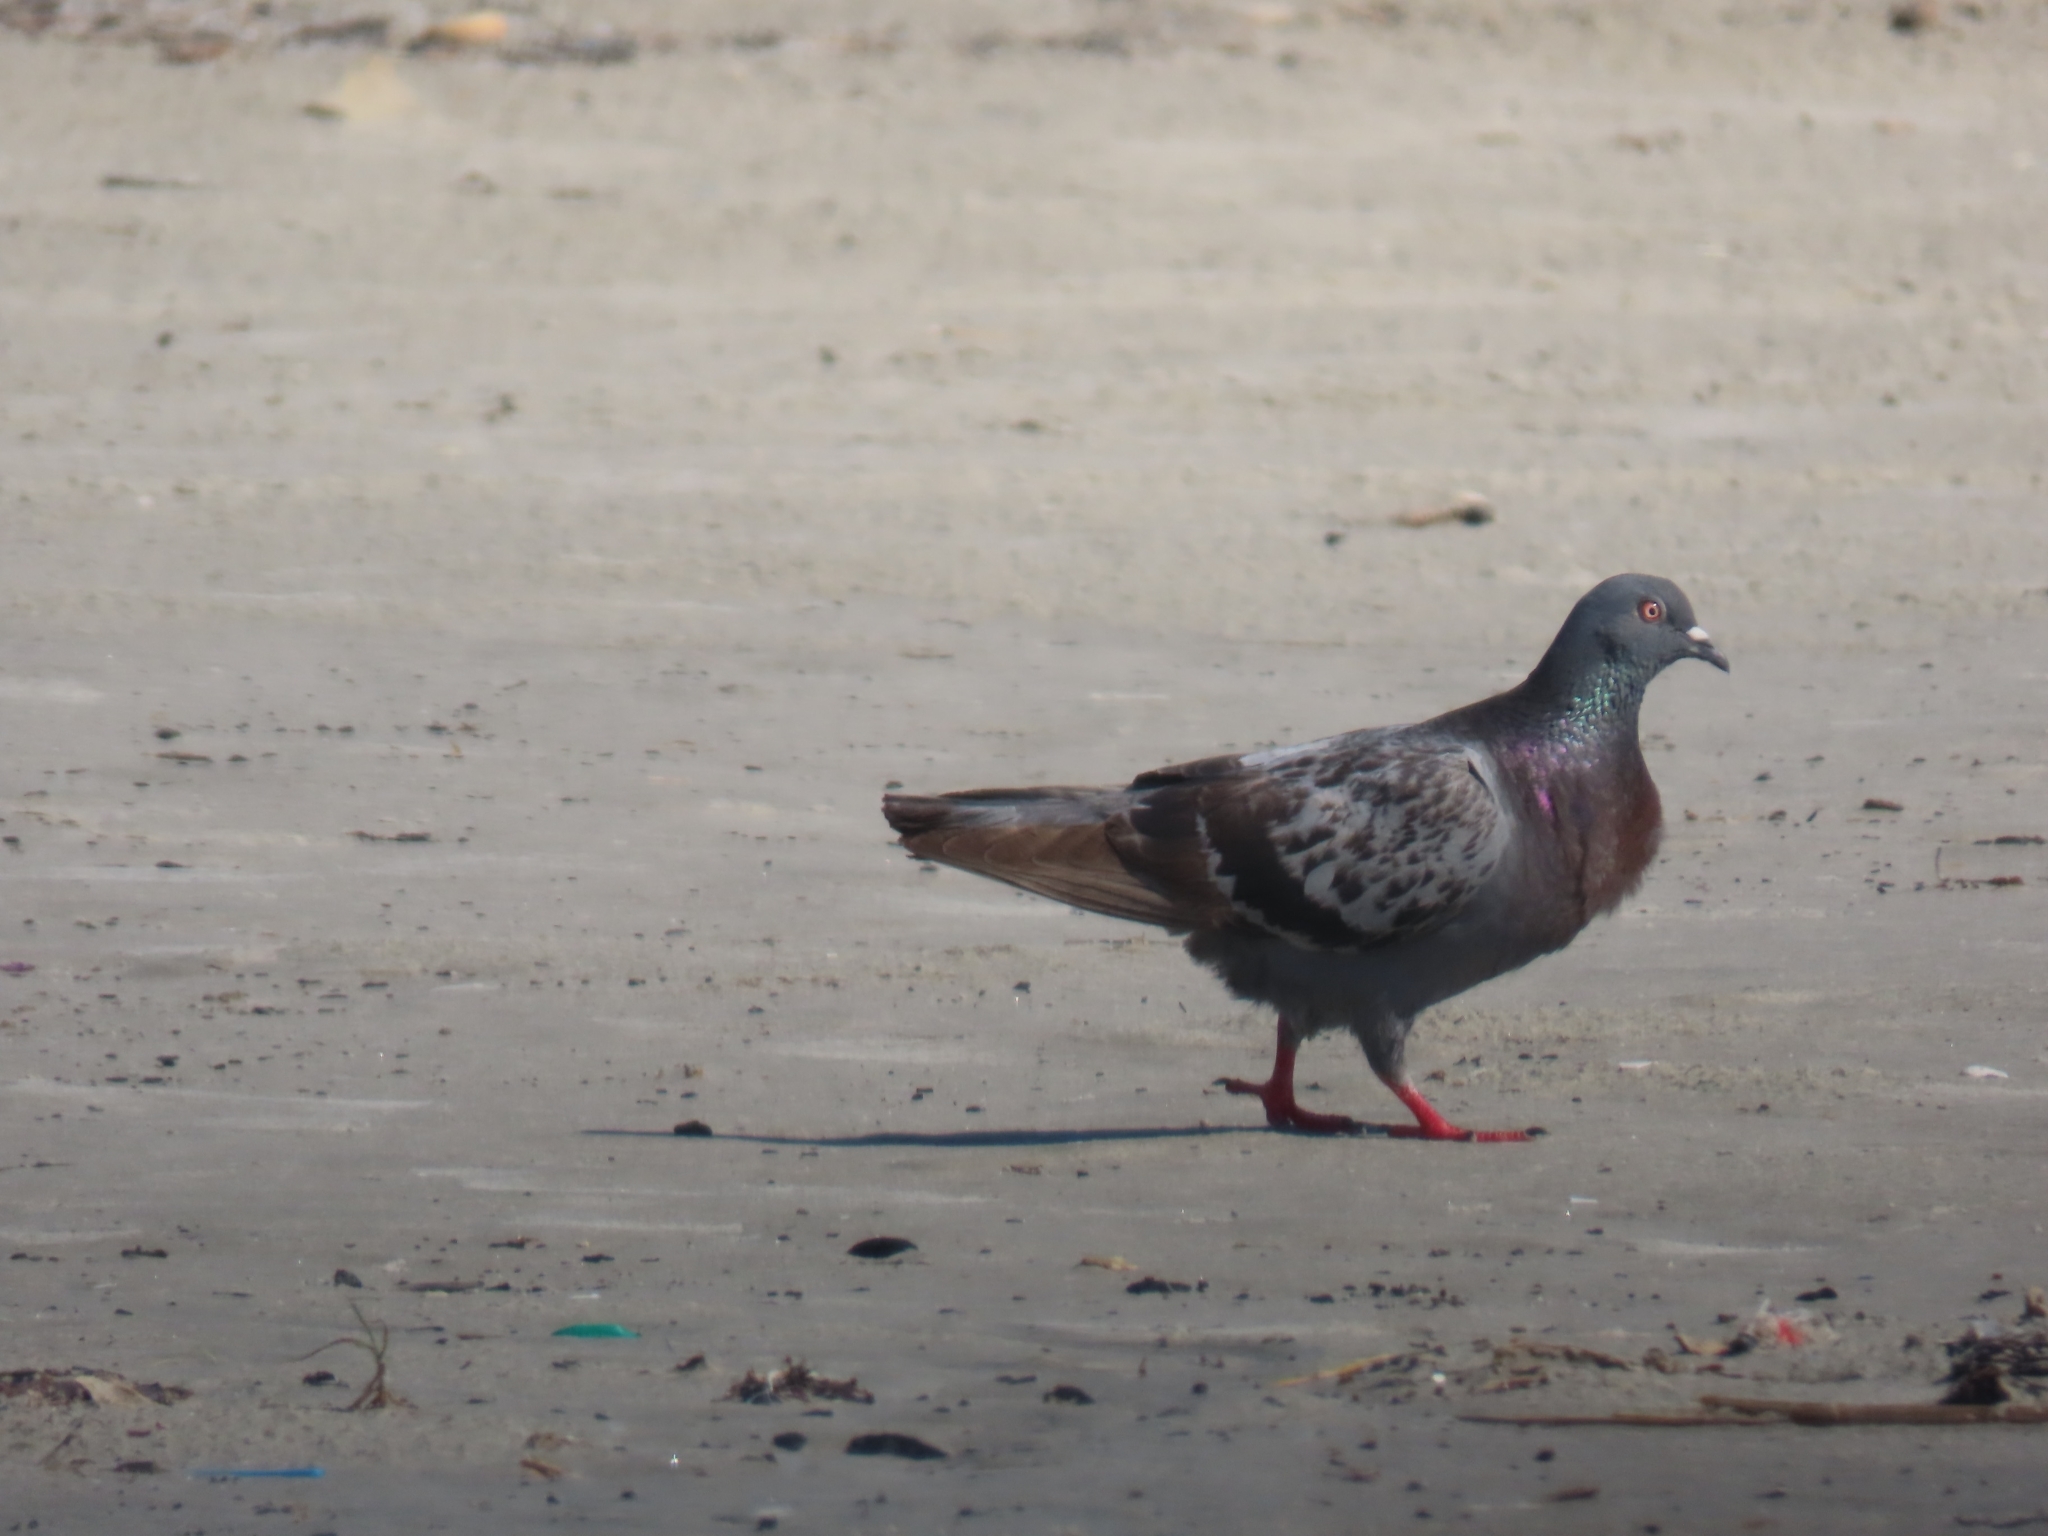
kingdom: Animalia
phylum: Chordata
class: Aves
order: Columbiformes
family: Columbidae
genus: Columba
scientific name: Columba livia
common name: Rock pigeon
